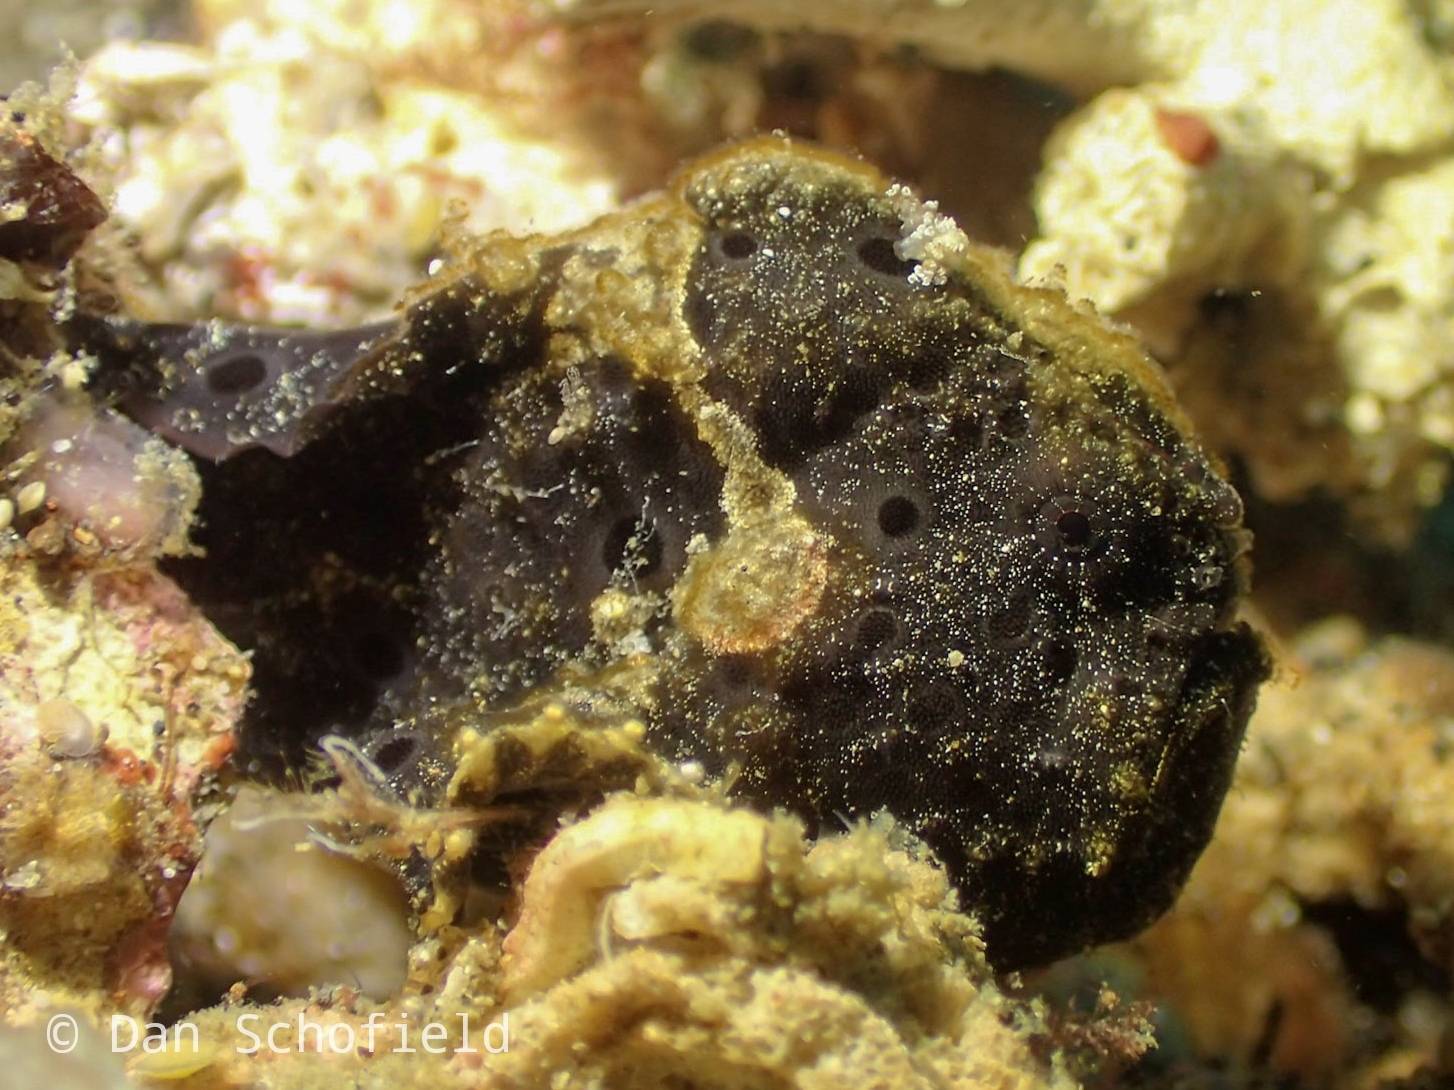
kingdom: Animalia
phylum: Chordata
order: Lophiiformes
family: Antennariidae
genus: Antennarius
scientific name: Antennarius pictus
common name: Painted frogfish
